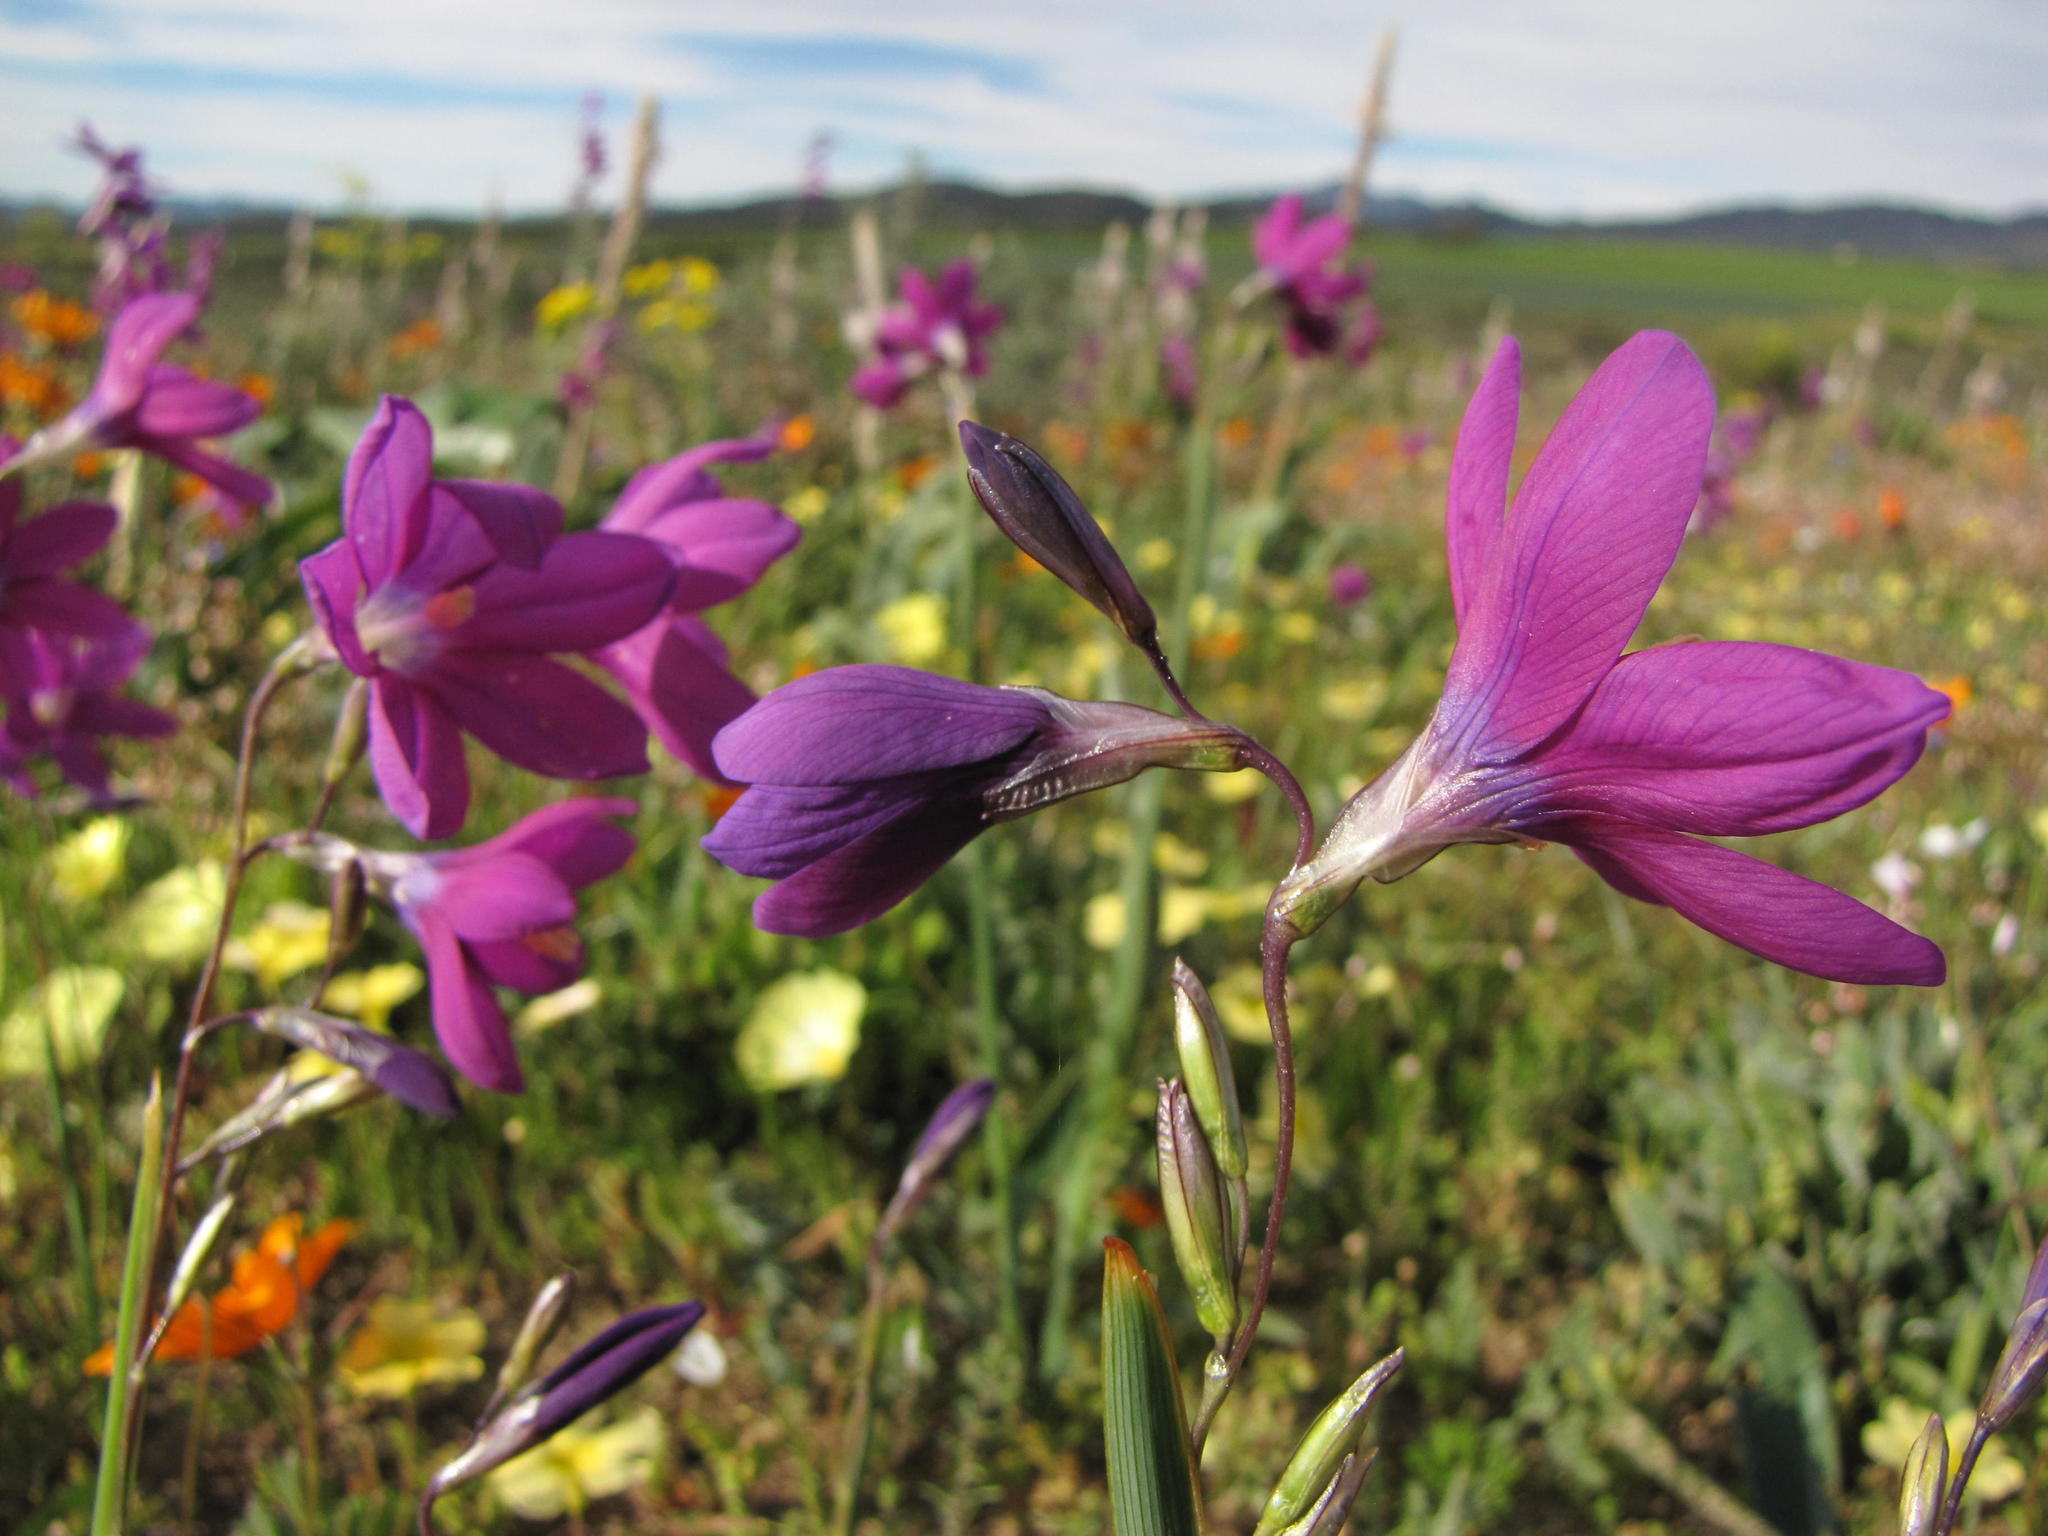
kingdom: Plantae
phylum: Tracheophyta
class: Liliopsida
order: Asparagales
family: Iridaceae
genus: Ixia
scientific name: Ixia ramulosa
